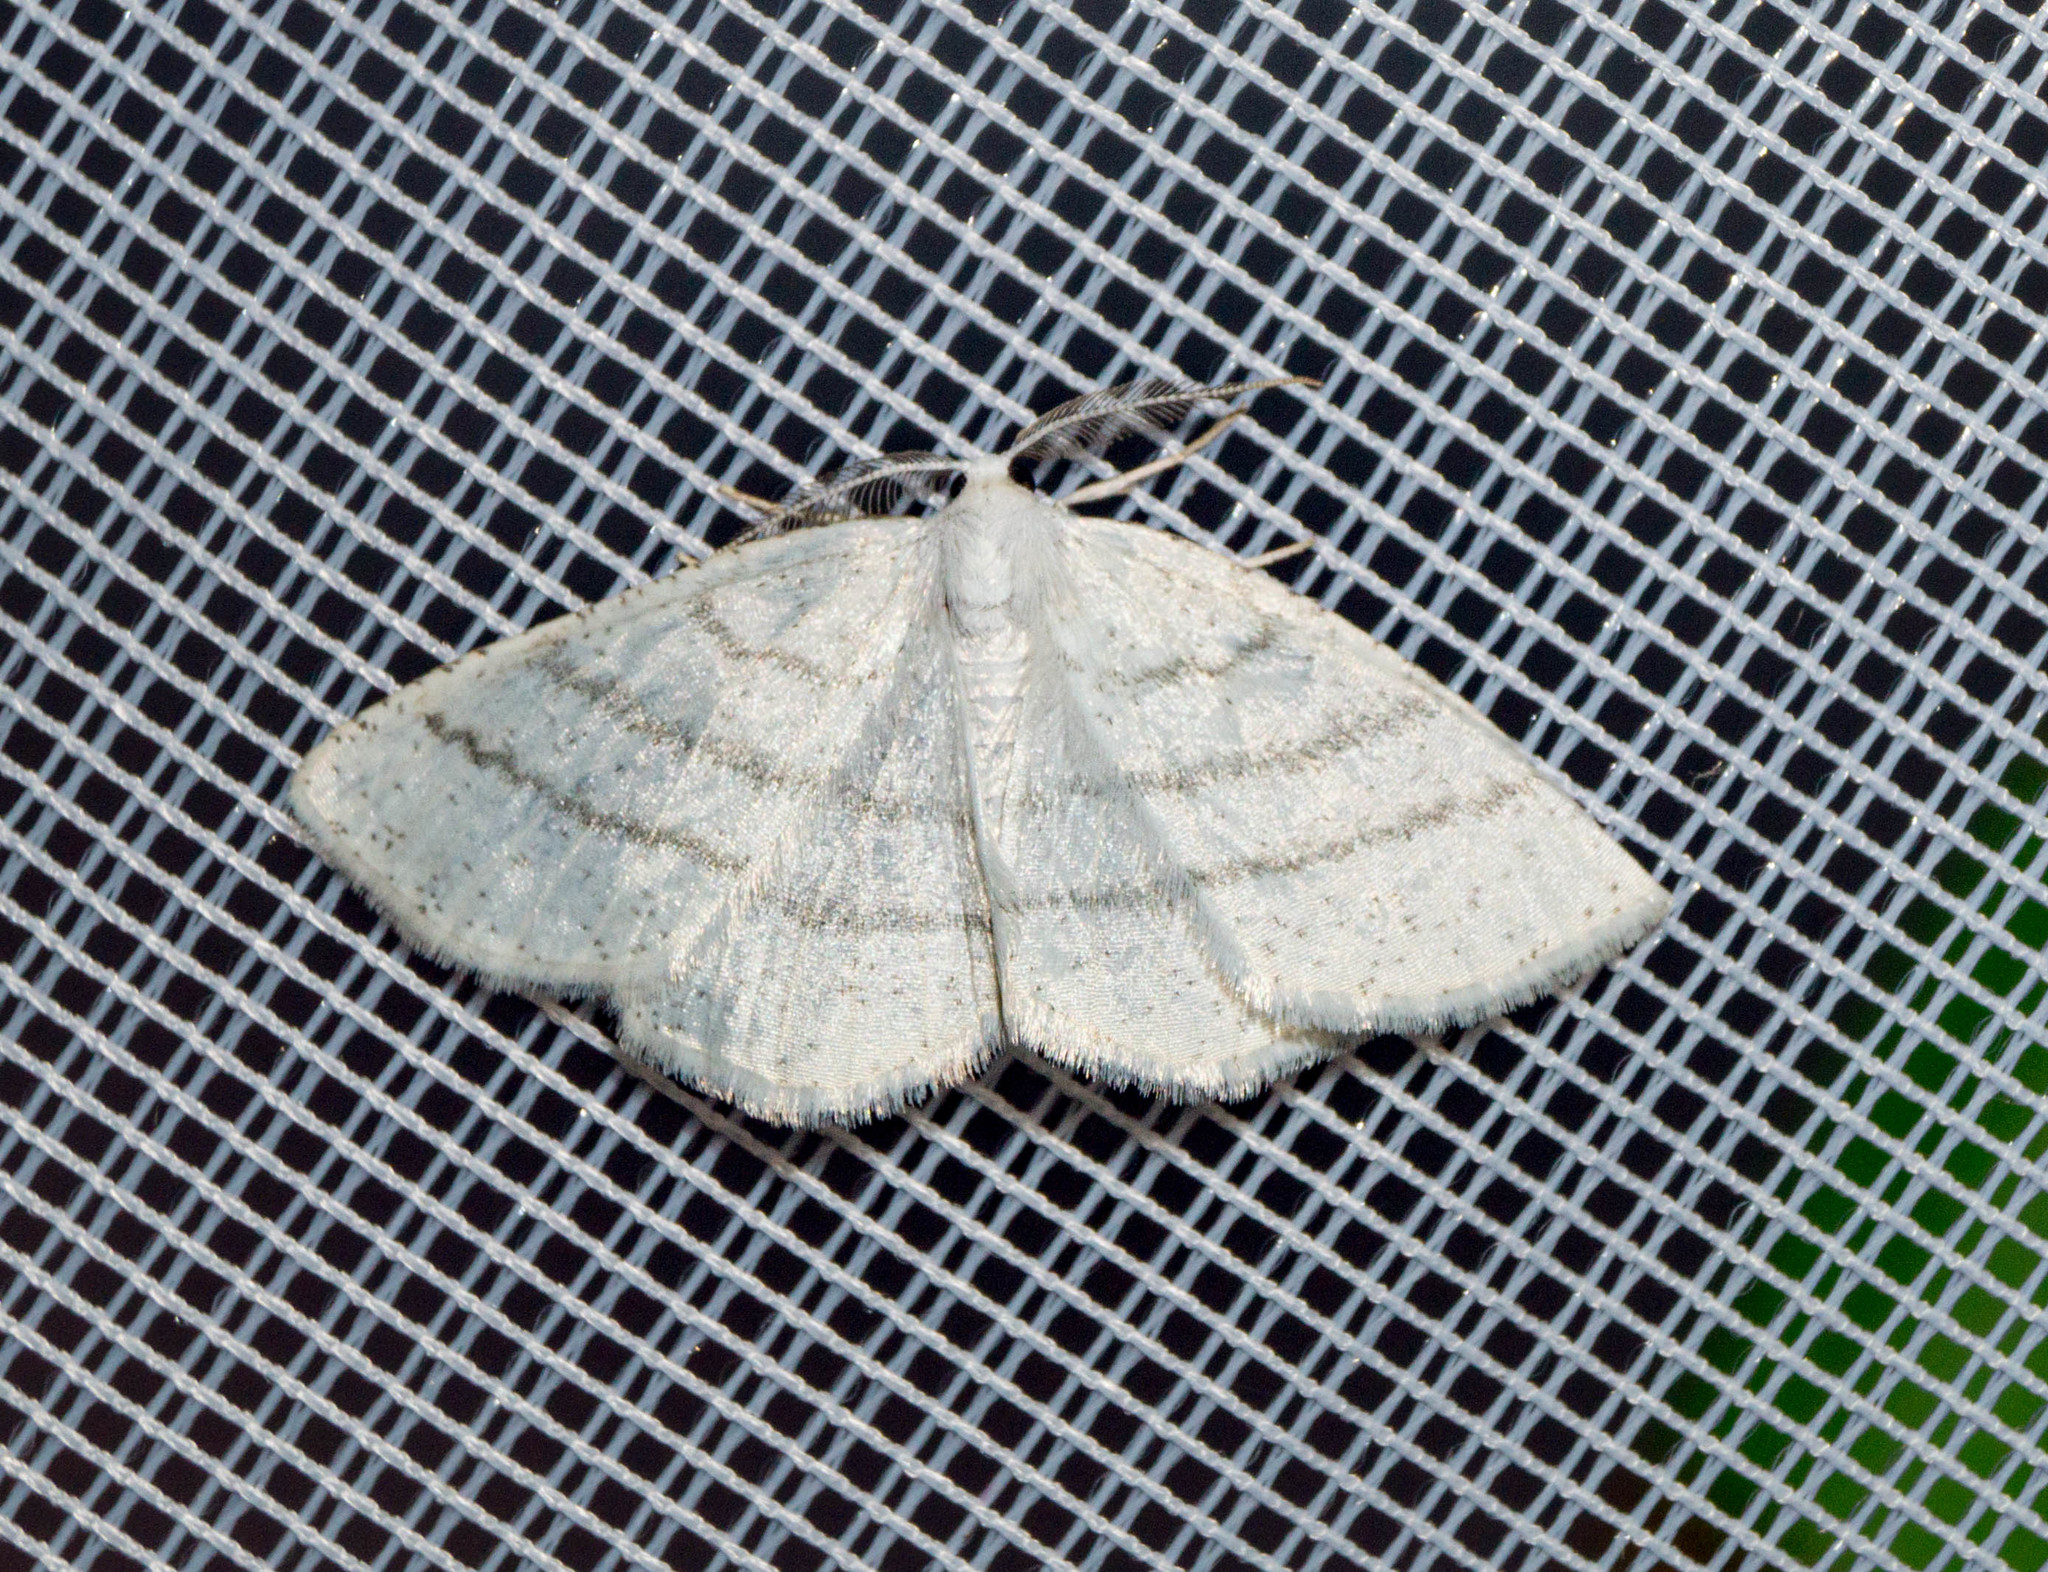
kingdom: Animalia
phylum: Arthropoda
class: Insecta
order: Lepidoptera
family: Geometridae
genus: Cabera
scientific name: Cabera pusaria
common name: Common white wave
